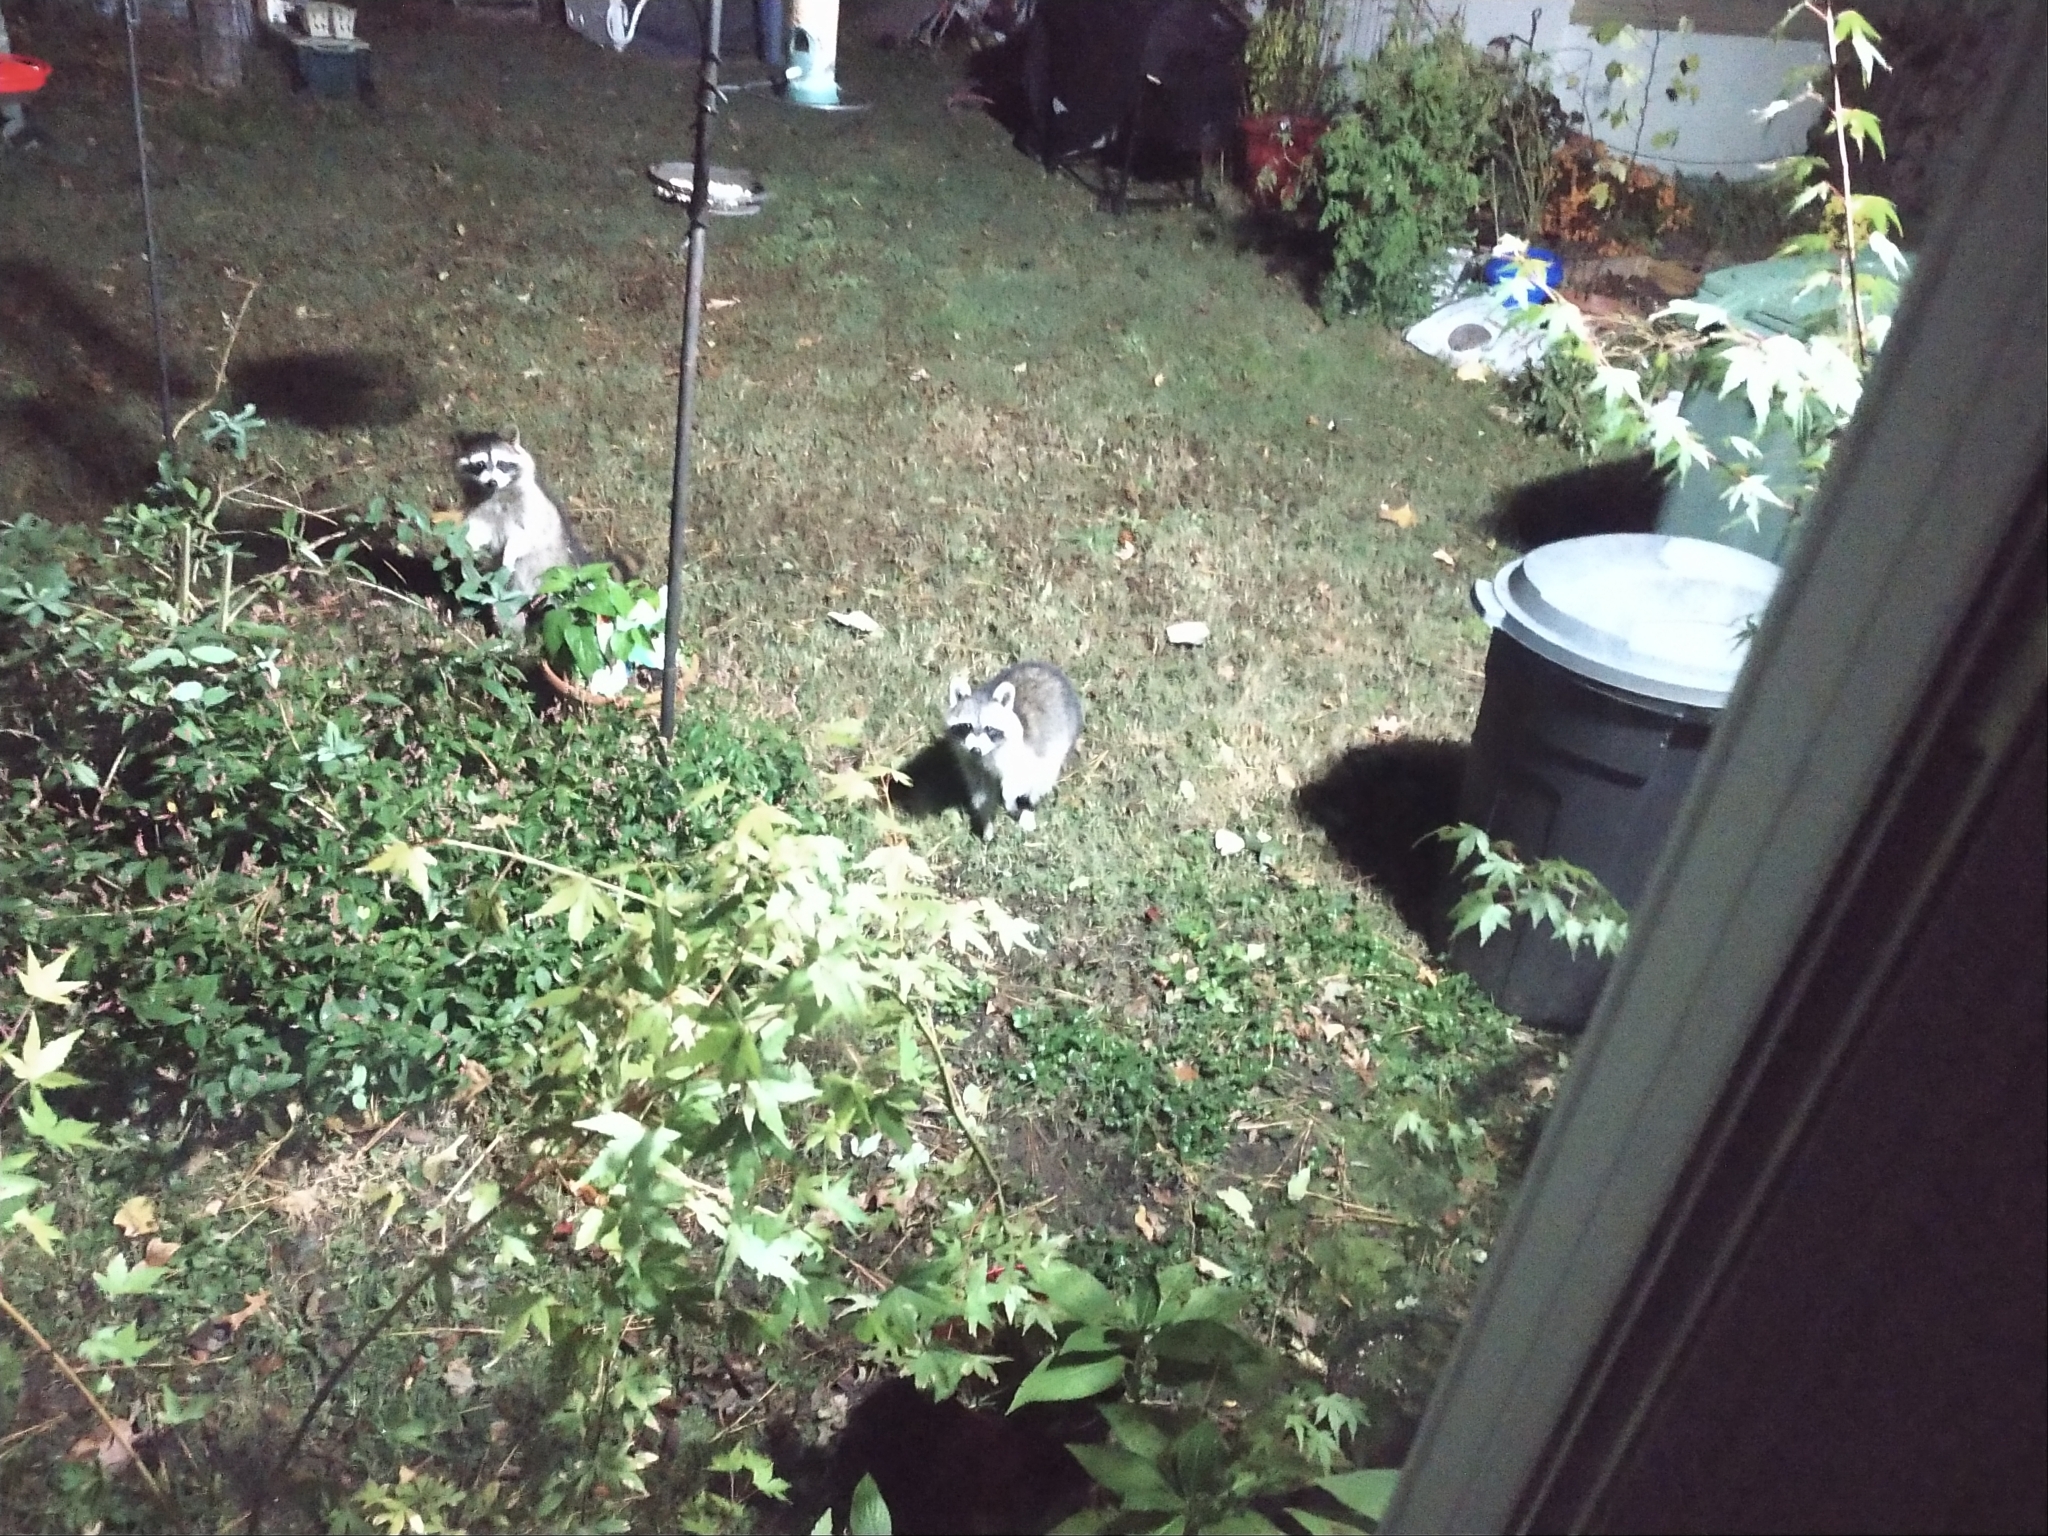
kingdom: Animalia
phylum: Chordata
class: Mammalia
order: Carnivora
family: Procyonidae
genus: Procyon
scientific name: Procyon lotor
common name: Raccoon
